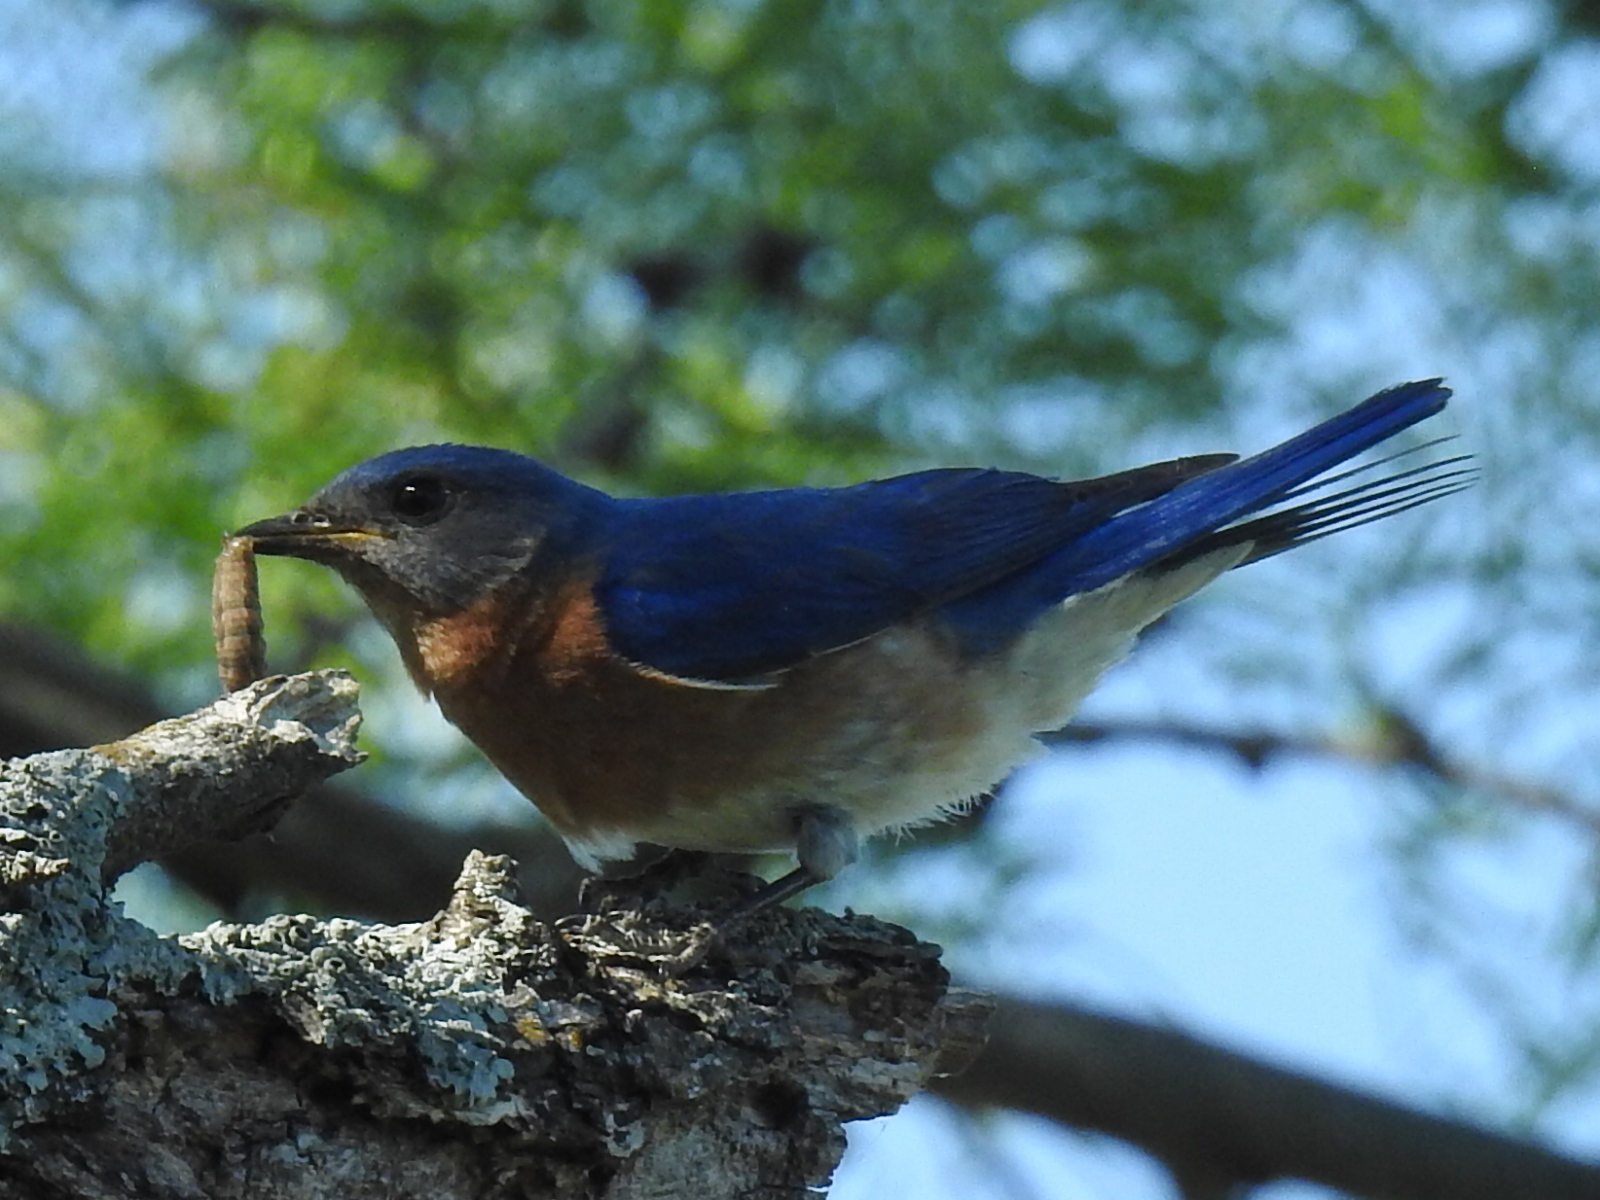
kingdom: Animalia
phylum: Chordata
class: Aves
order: Passeriformes
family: Turdidae
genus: Sialia
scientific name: Sialia sialis
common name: Eastern bluebird
